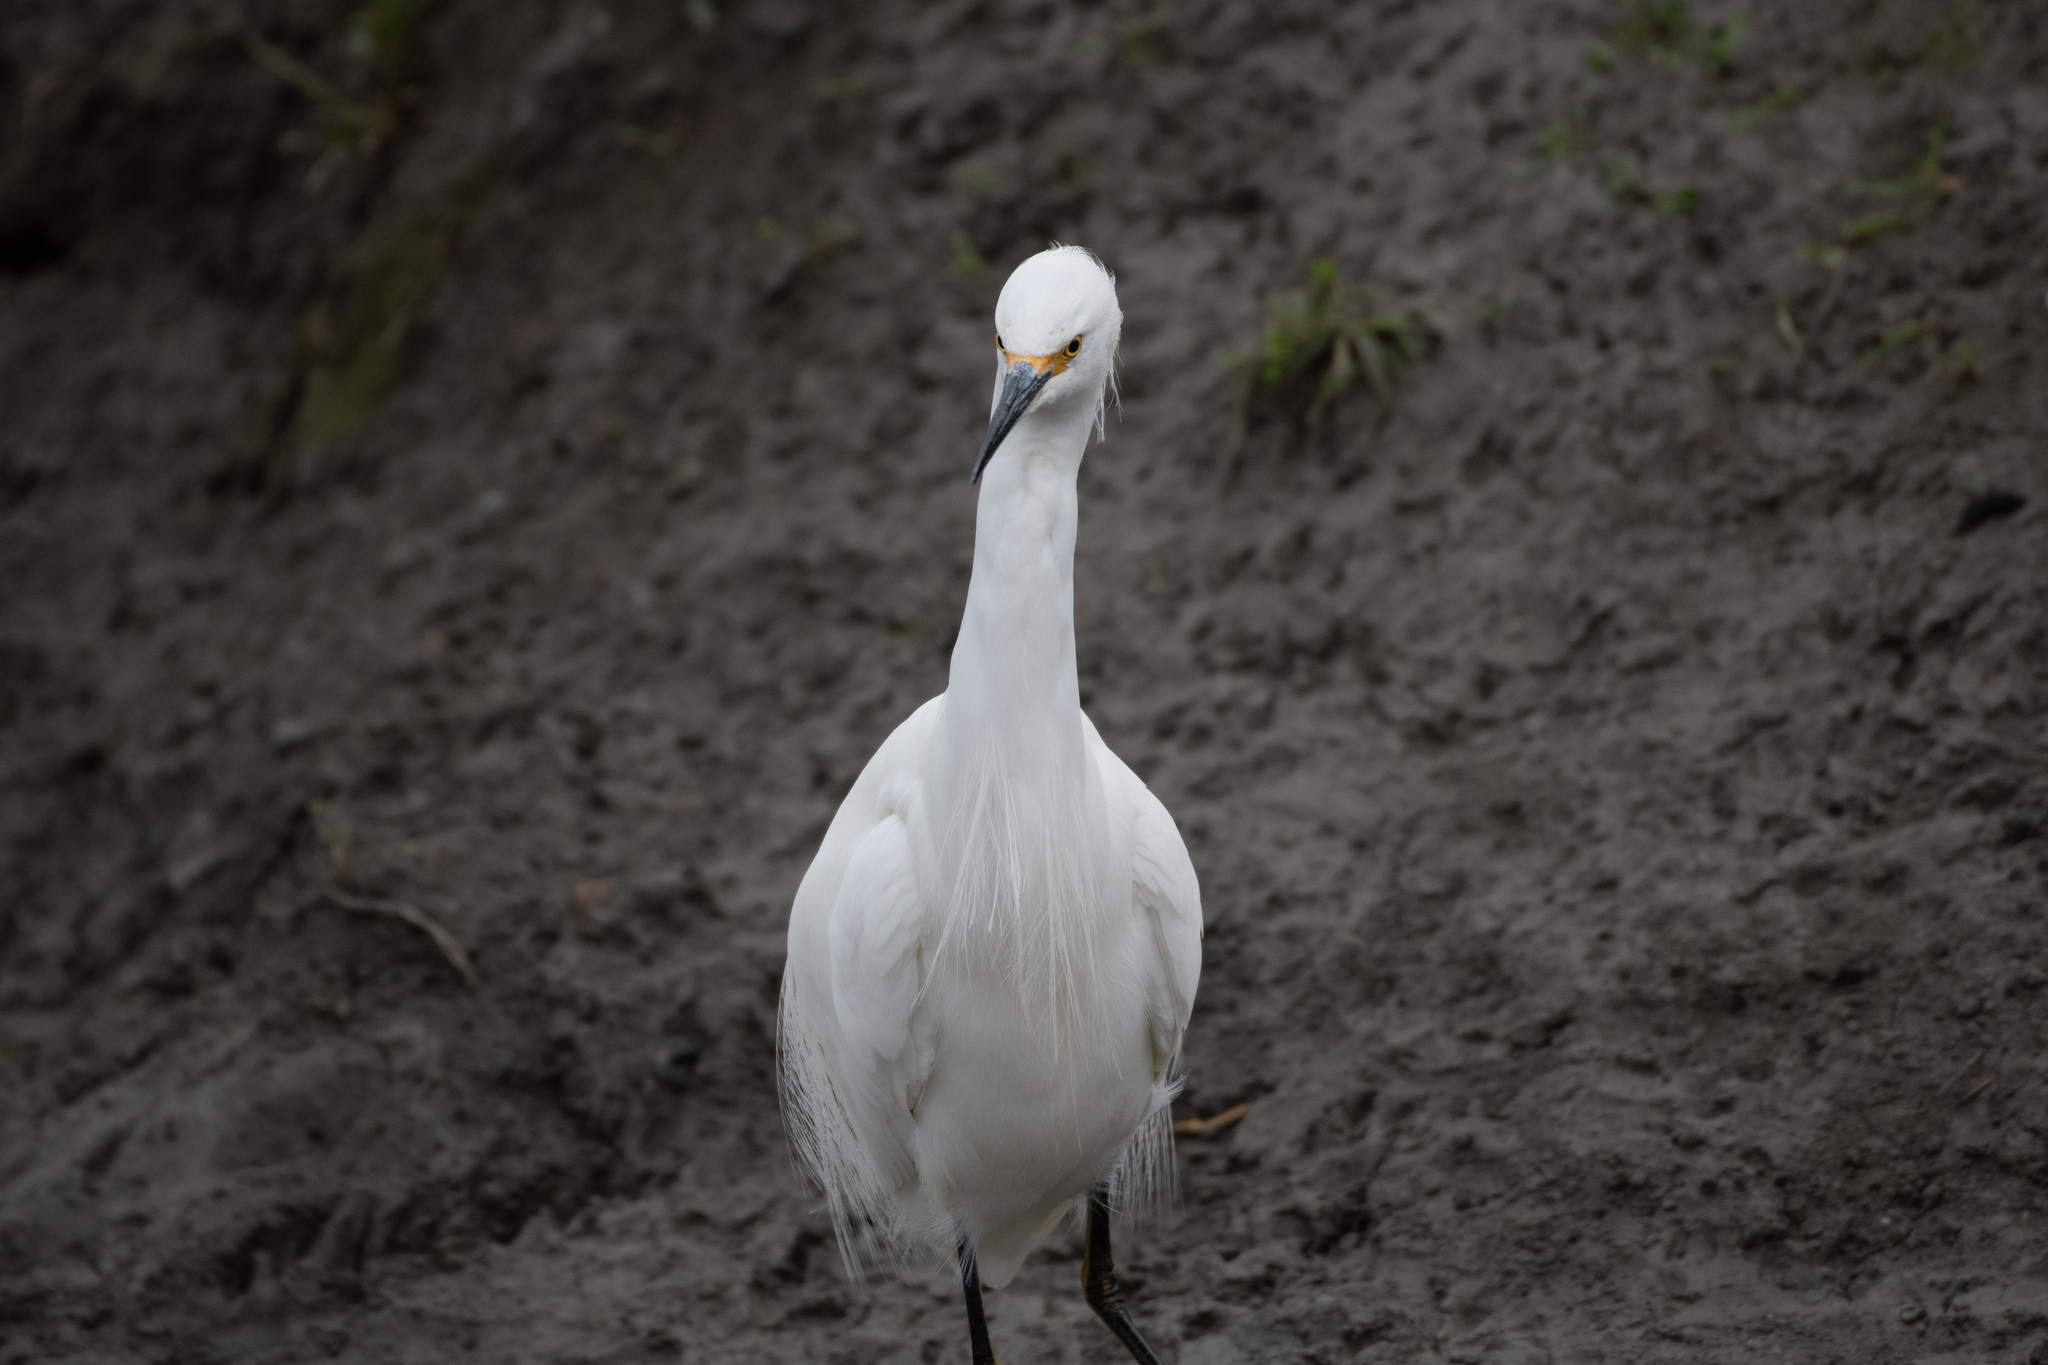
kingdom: Animalia
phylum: Chordata
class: Aves
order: Pelecaniformes
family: Ardeidae
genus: Egretta
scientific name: Egretta thula
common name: Snowy egret
